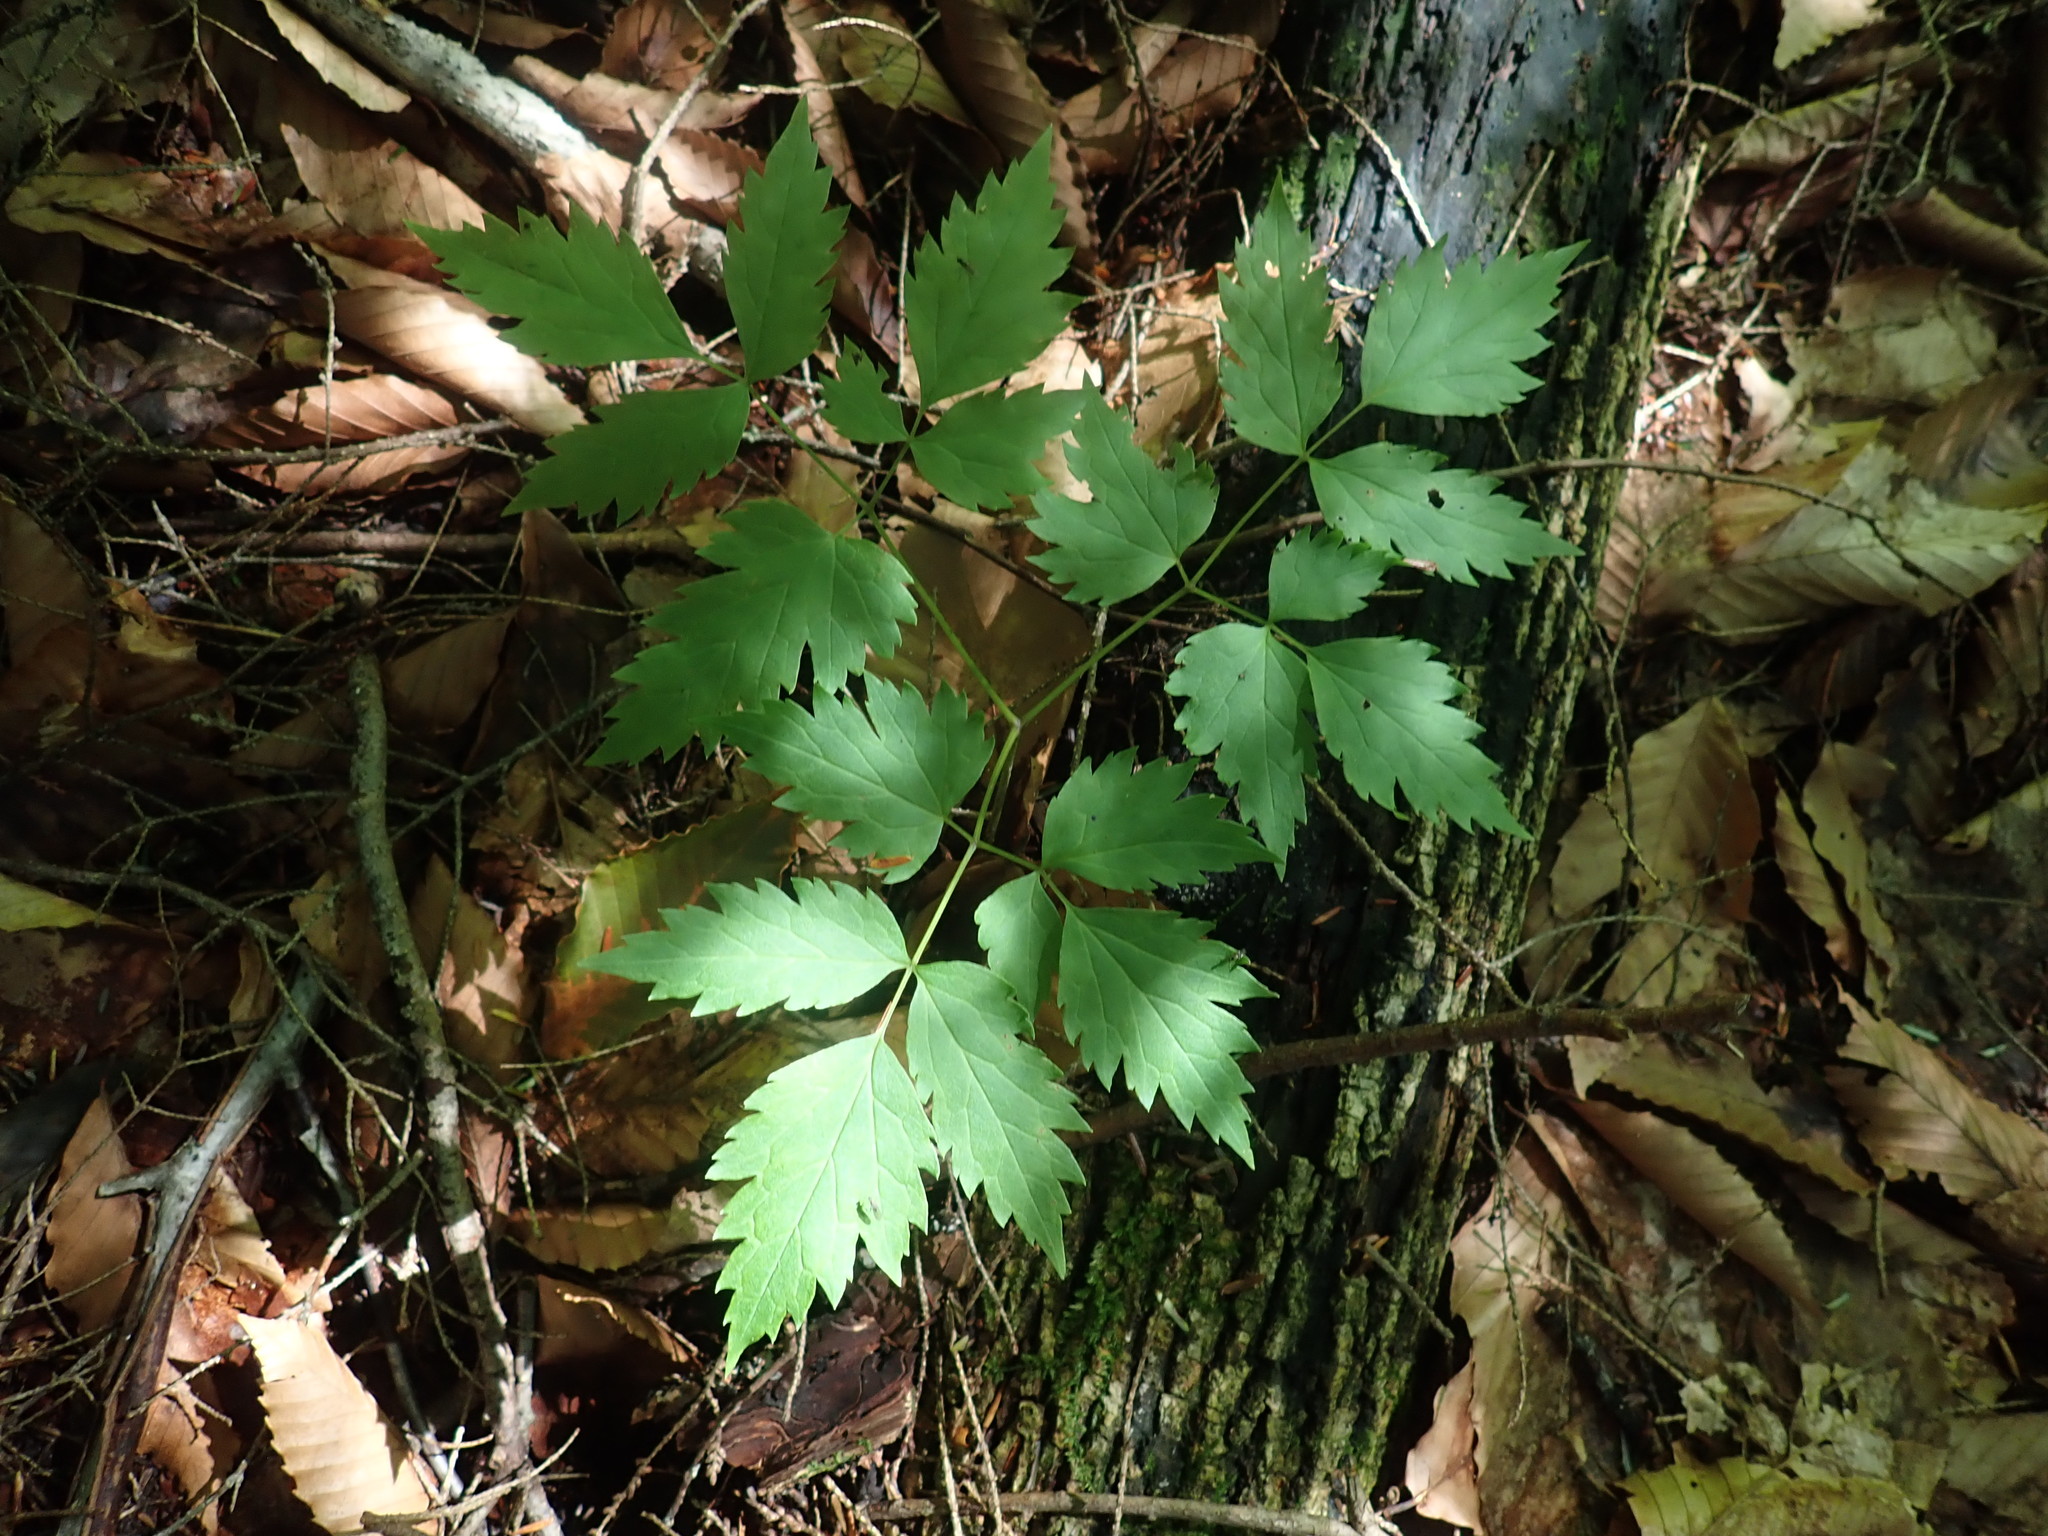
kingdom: Plantae
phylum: Tracheophyta
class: Magnoliopsida
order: Ranunculales
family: Ranunculaceae
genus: Actaea
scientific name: Actaea
